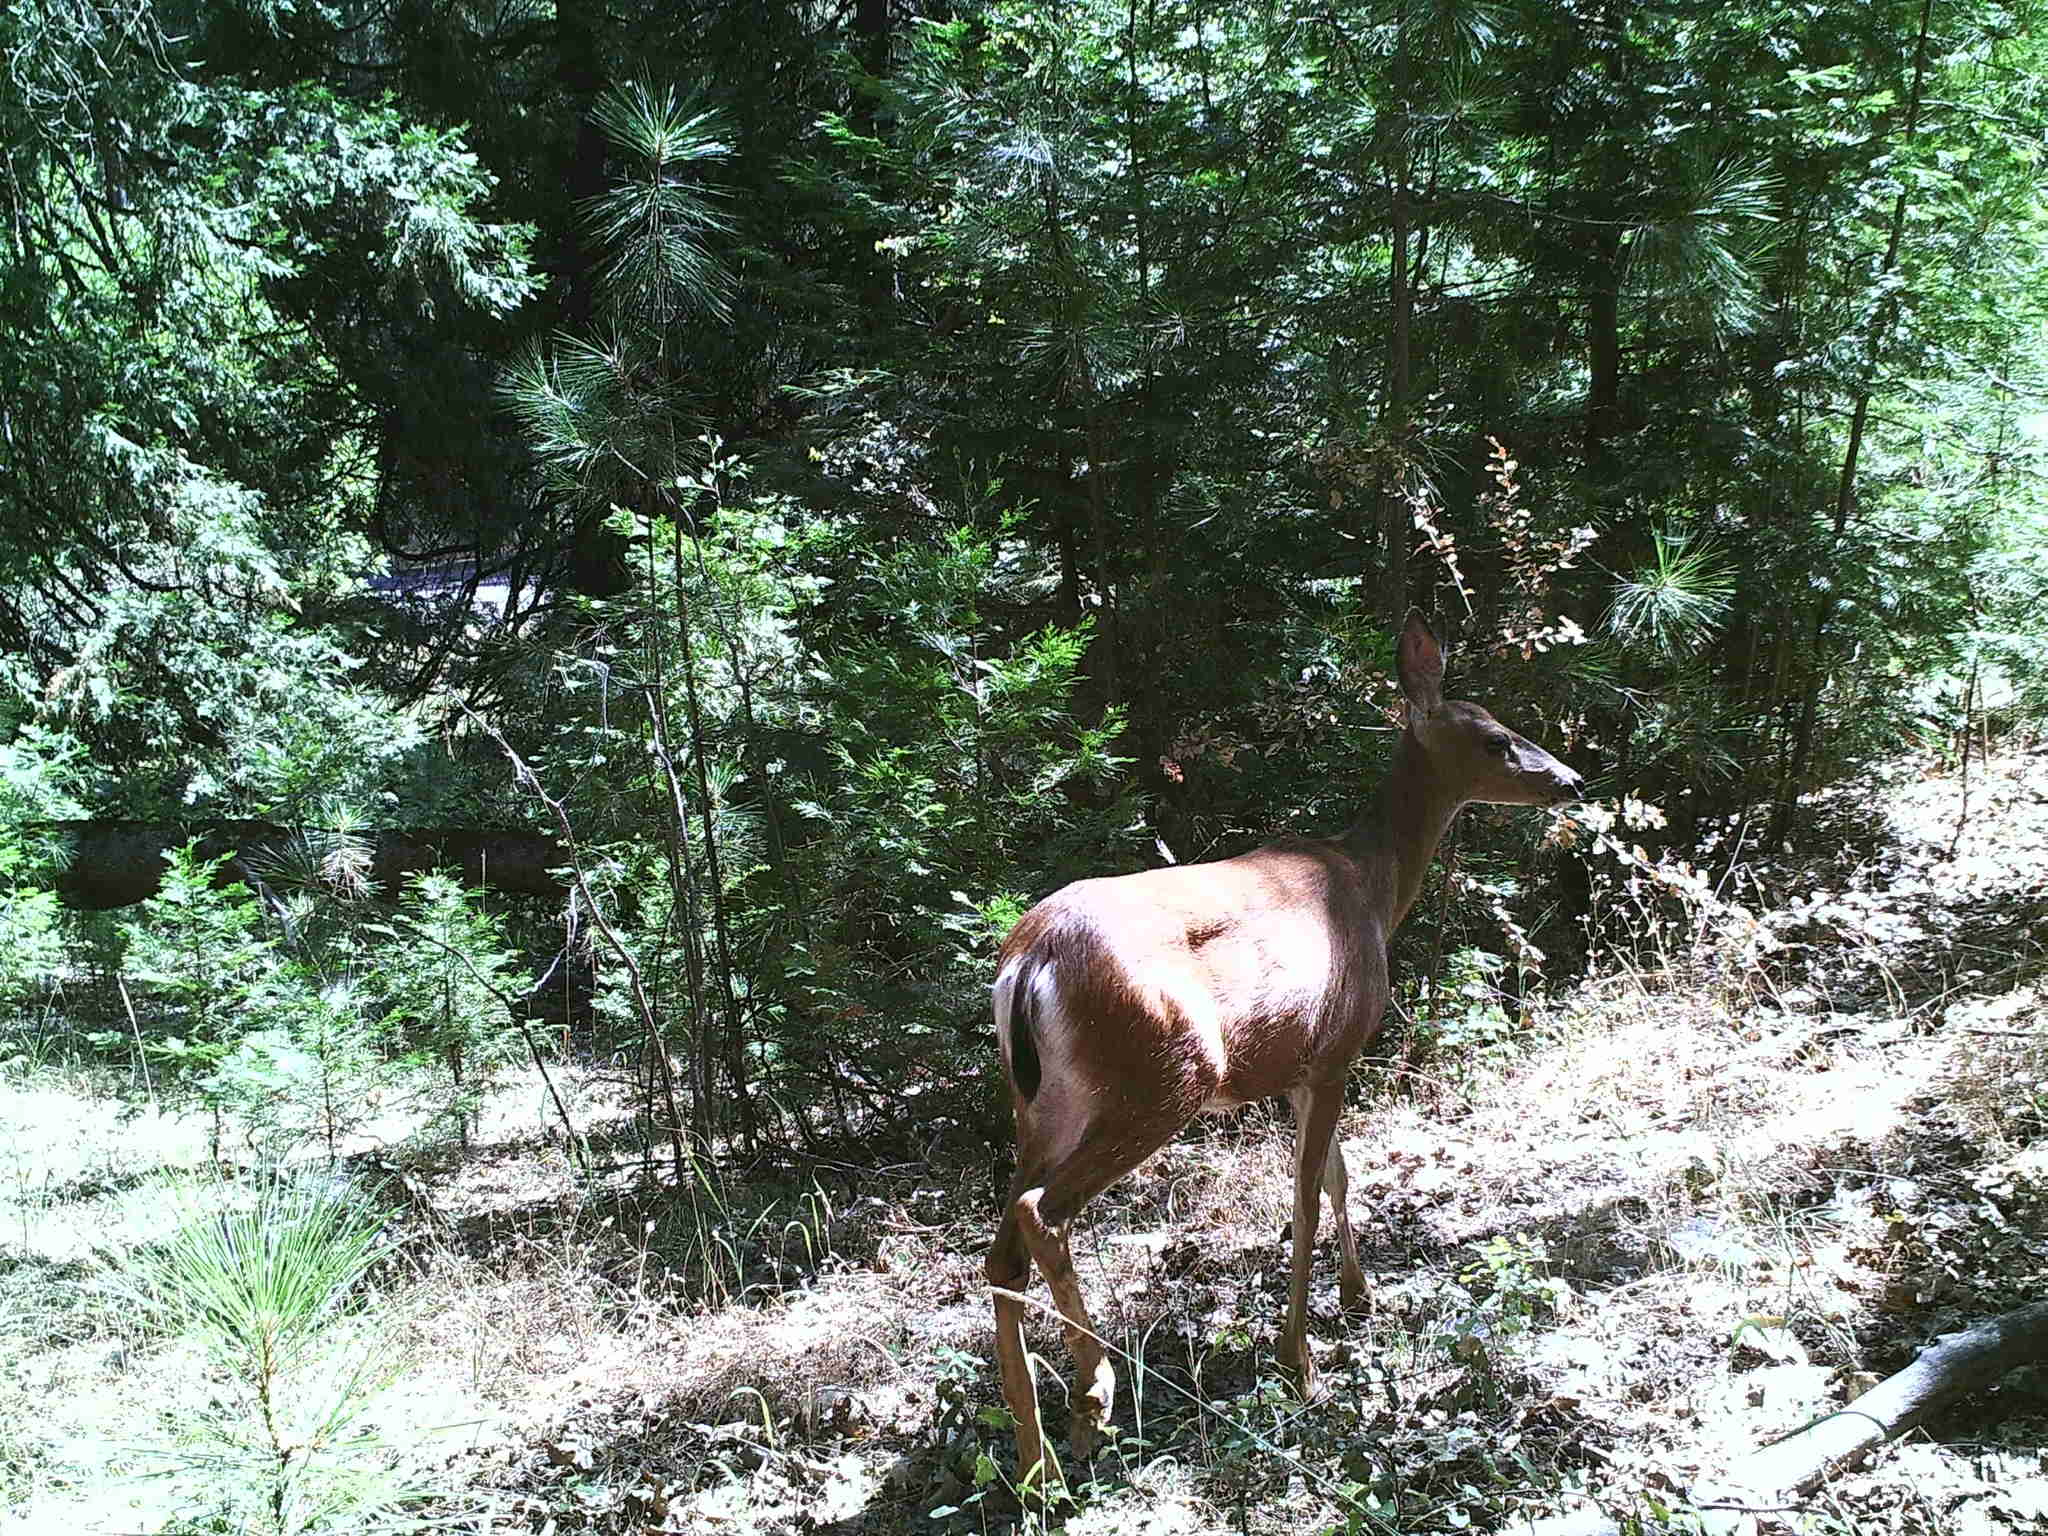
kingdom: Animalia
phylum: Chordata
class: Mammalia
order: Artiodactyla
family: Cervidae
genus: Odocoileus
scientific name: Odocoileus hemionus
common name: Mule deer
